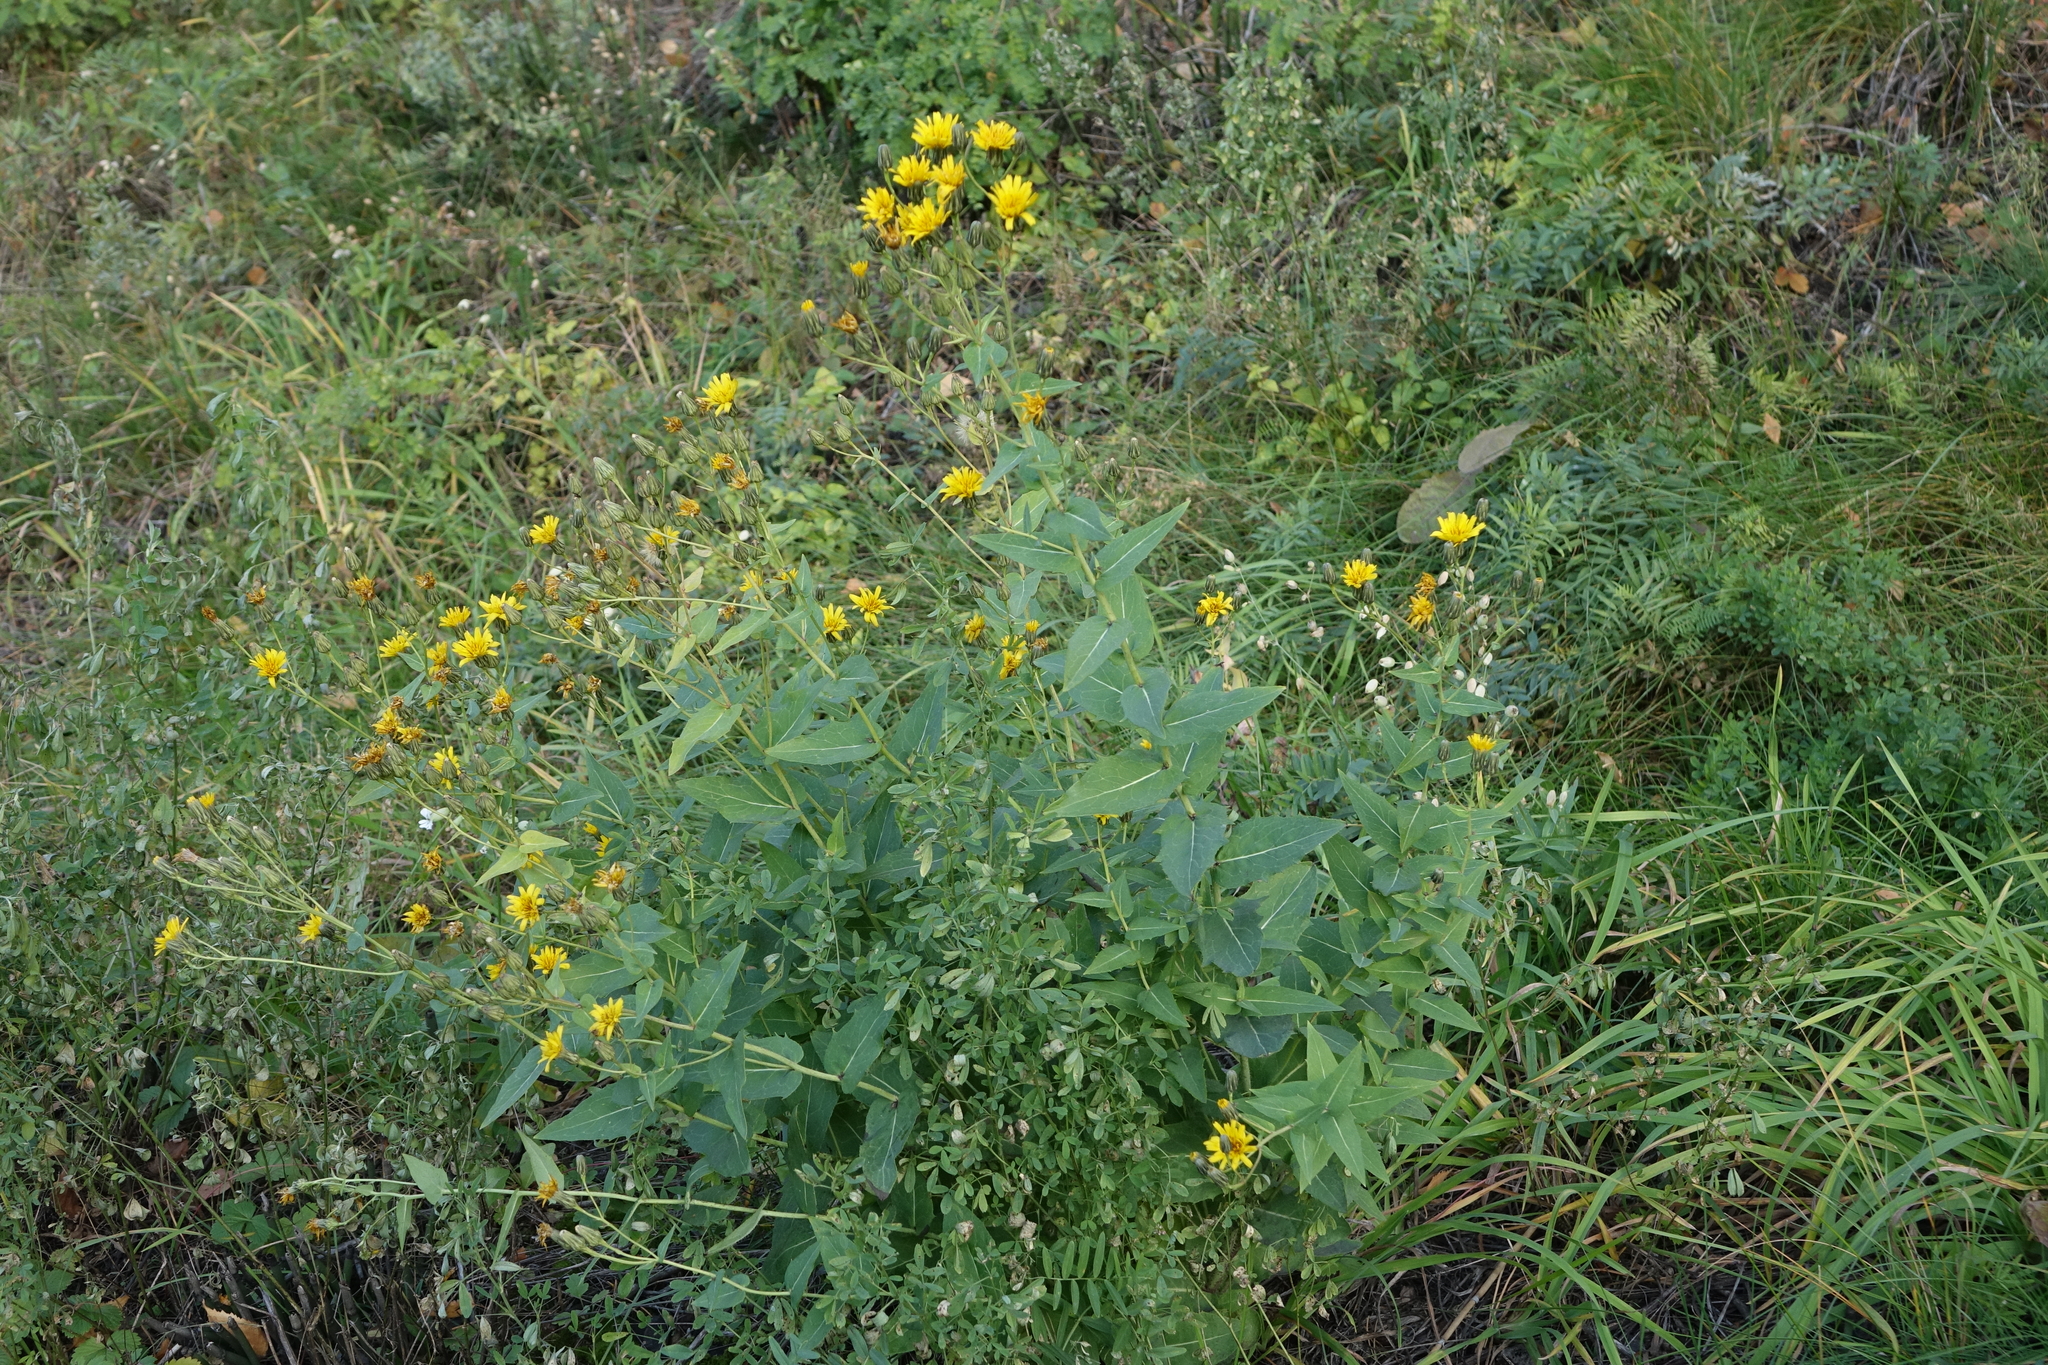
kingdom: Plantae
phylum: Tracheophyta
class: Magnoliopsida
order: Asterales
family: Asteraceae
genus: Hieracium
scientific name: Hieracium virosum
